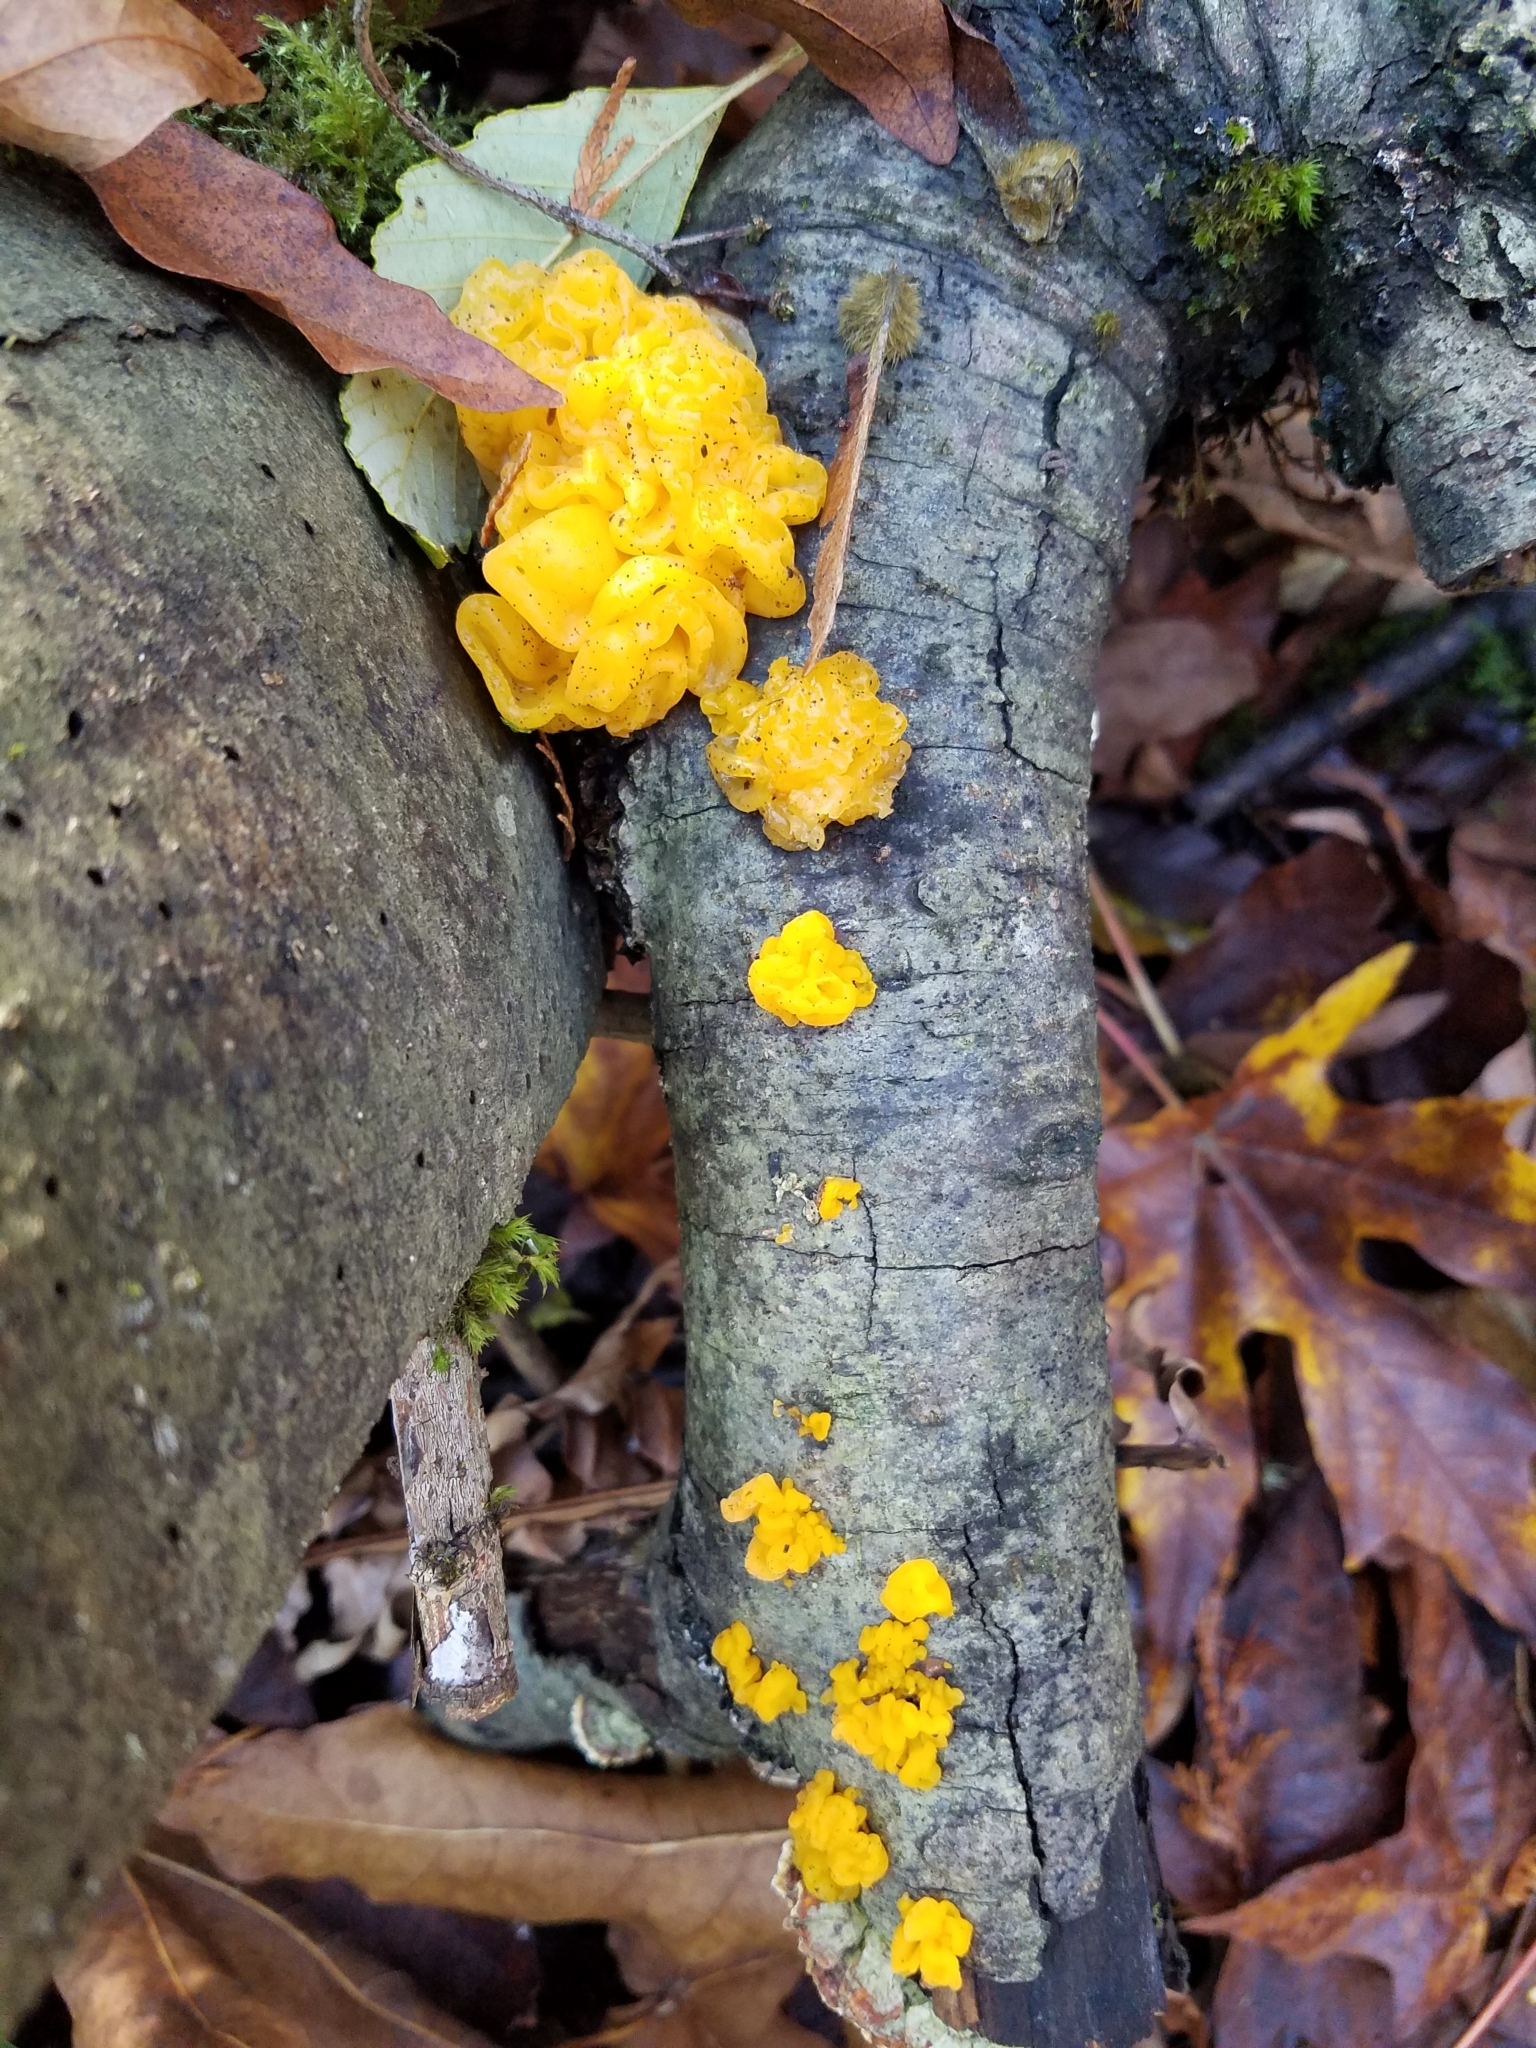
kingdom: Fungi
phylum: Basidiomycota
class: Tremellomycetes
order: Tremellales
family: Tremellaceae
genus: Tremella
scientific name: Tremella mesenterica
